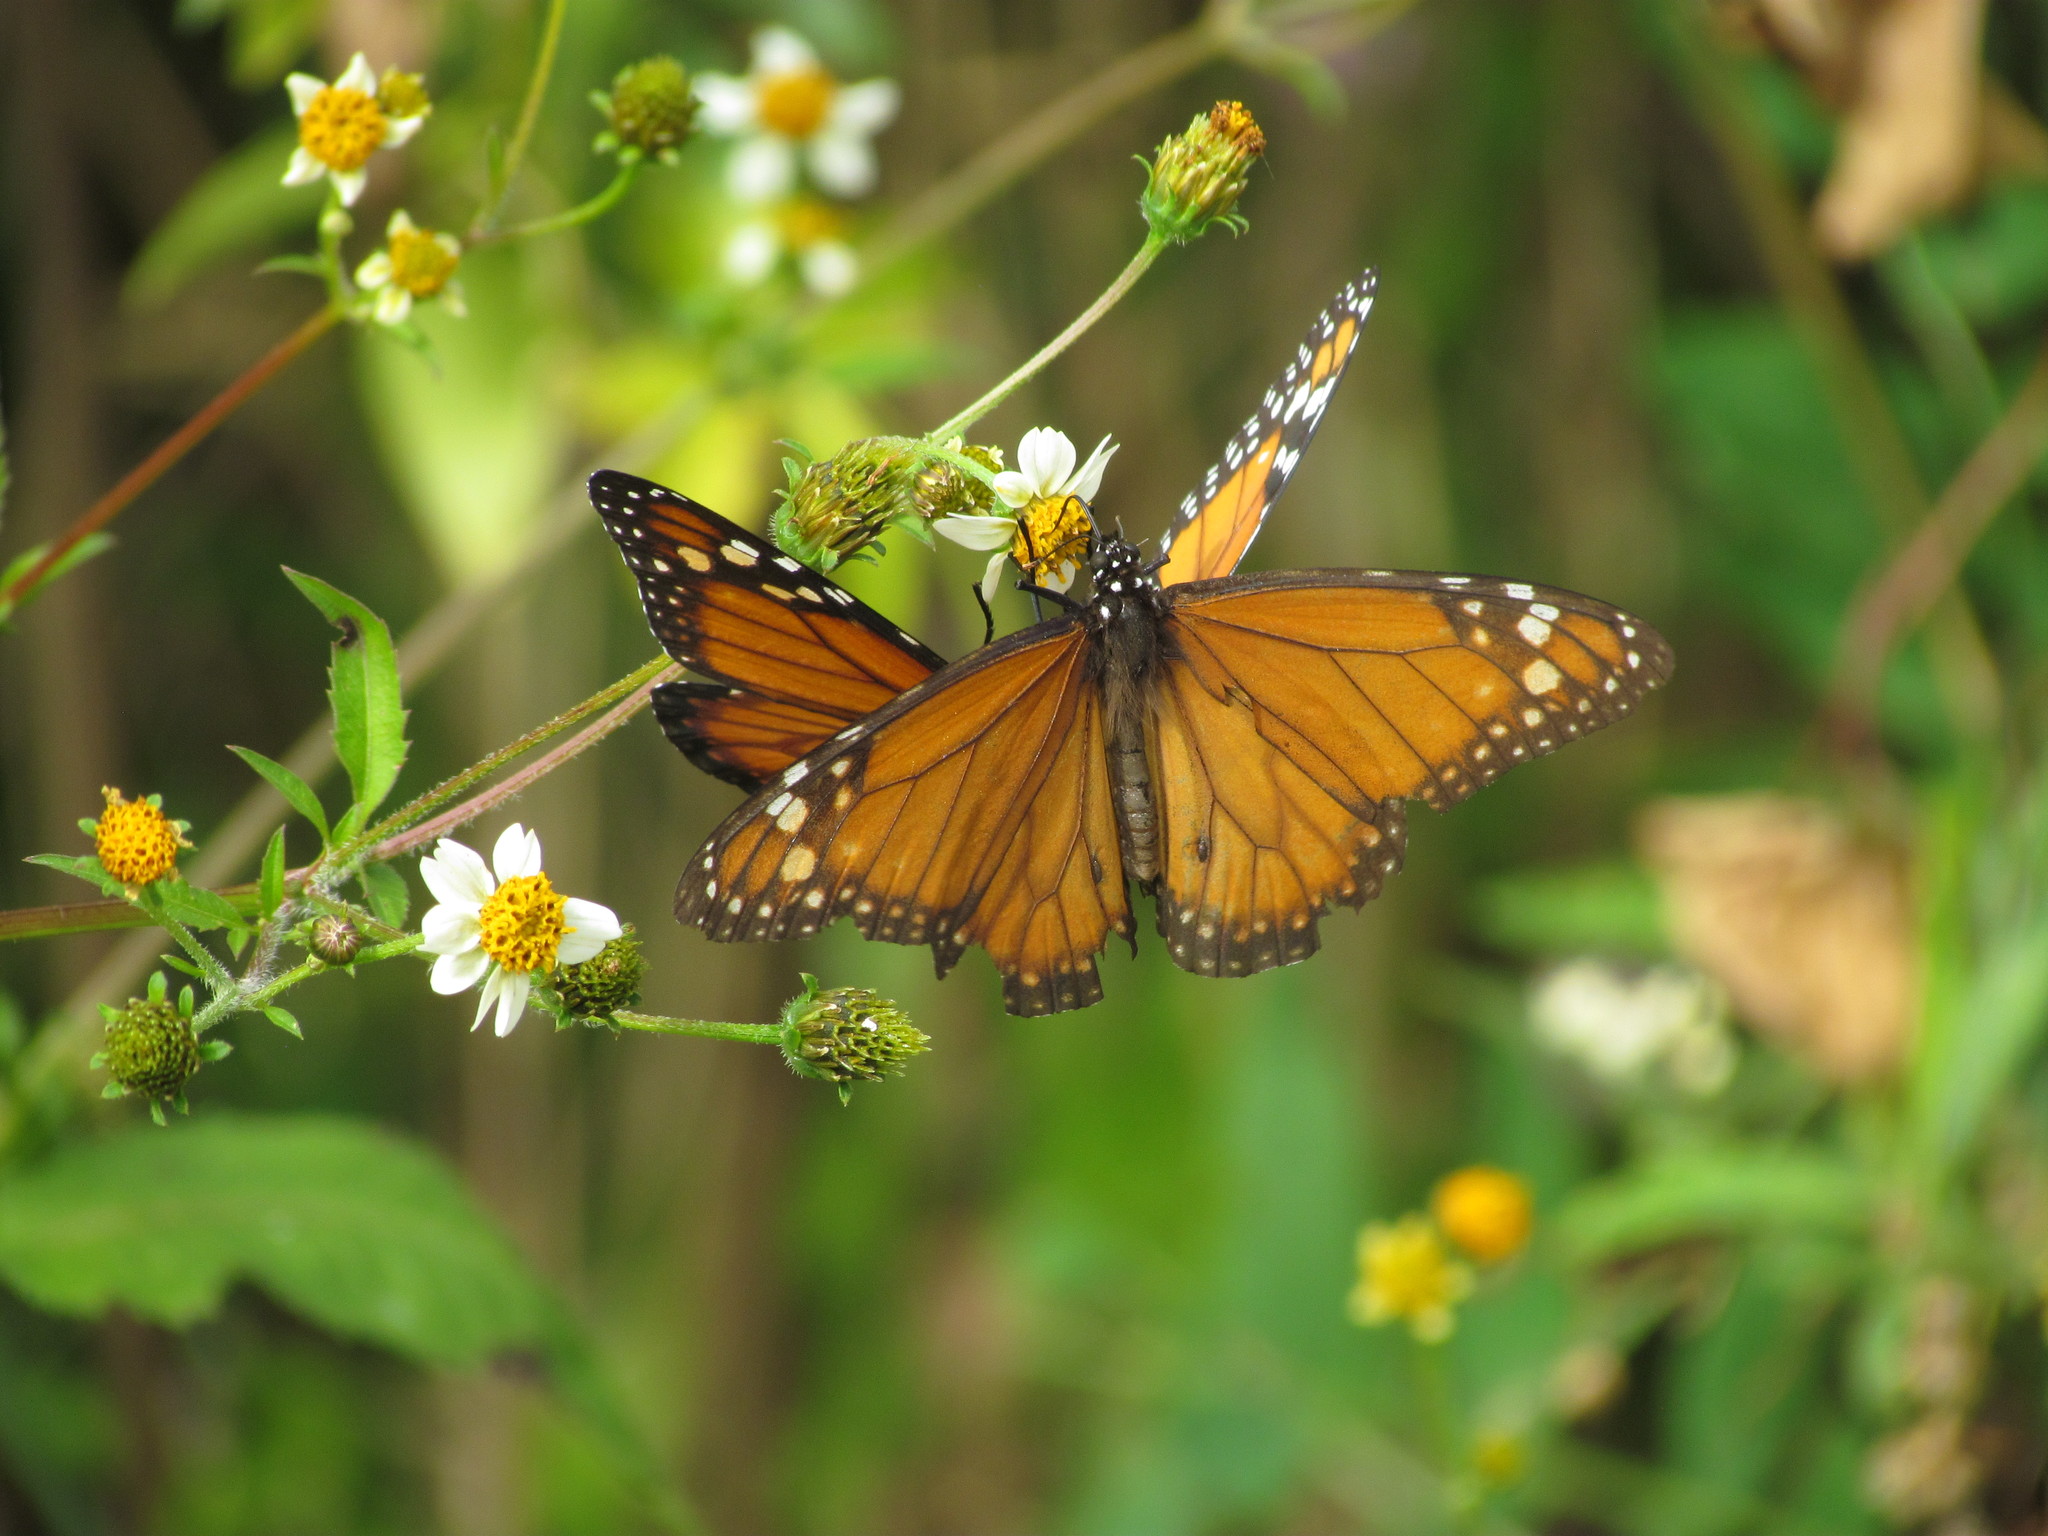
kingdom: Animalia
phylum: Arthropoda
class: Insecta
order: Lepidoptera
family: Nymphalidae
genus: Danaus
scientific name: Danaus erippus
